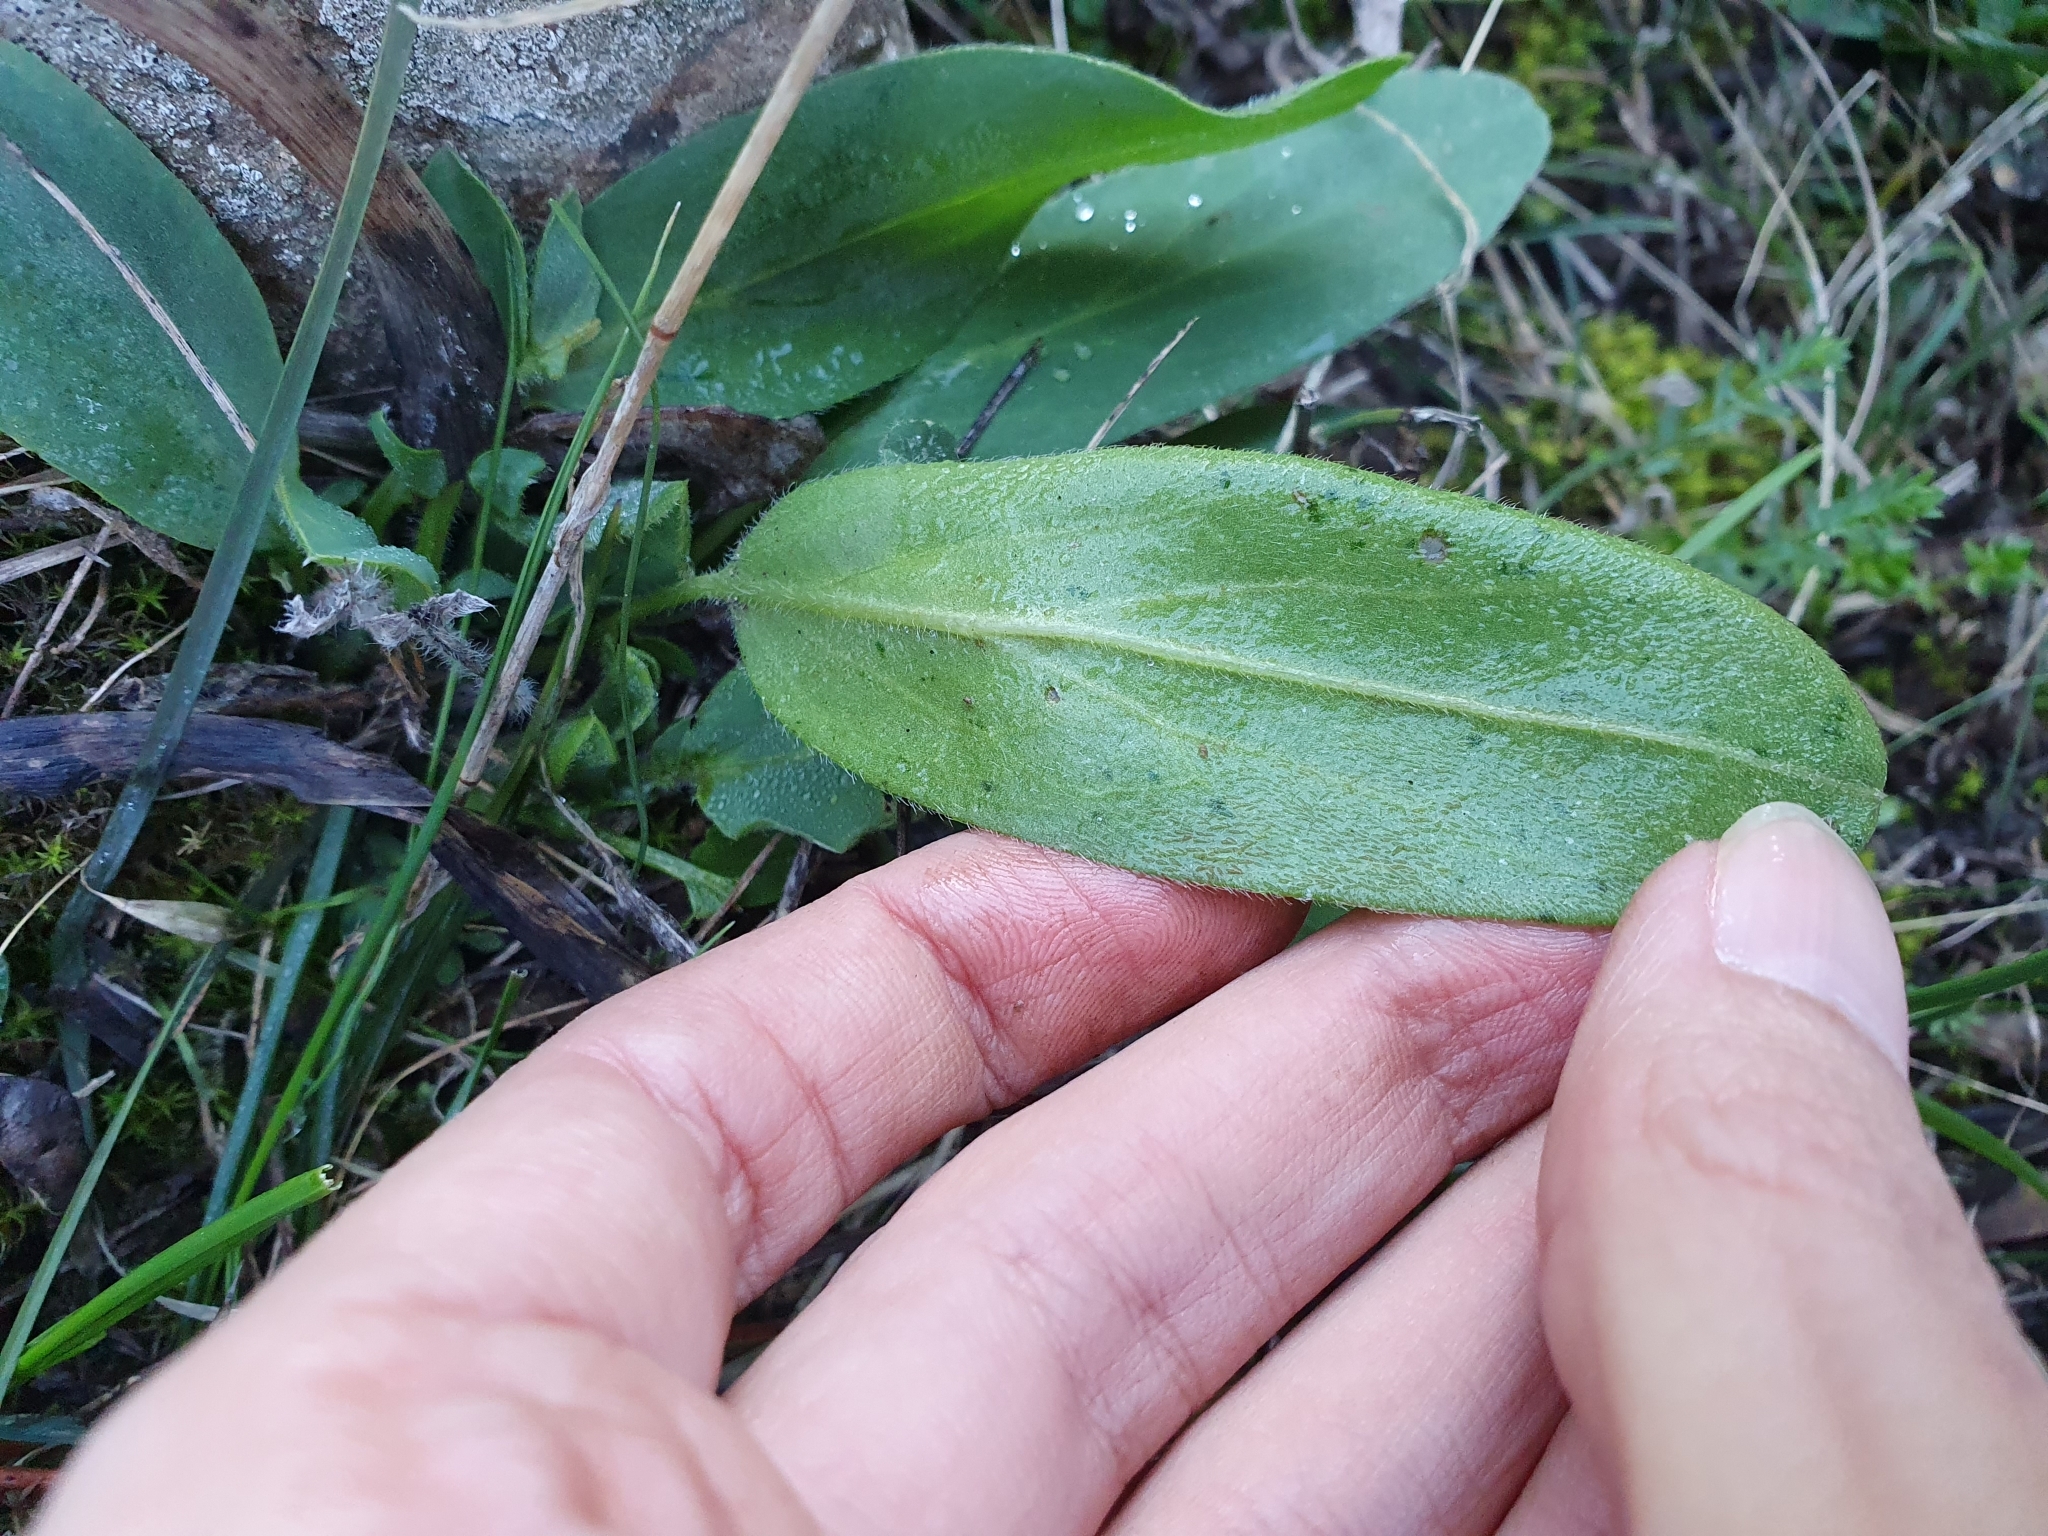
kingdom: Plantae
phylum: Tracheophyta
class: Magnoliopsida
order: Fabales
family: Fabaceae
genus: Anthyllis
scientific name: Anthyllis vulneraria
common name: Kidney vetch
